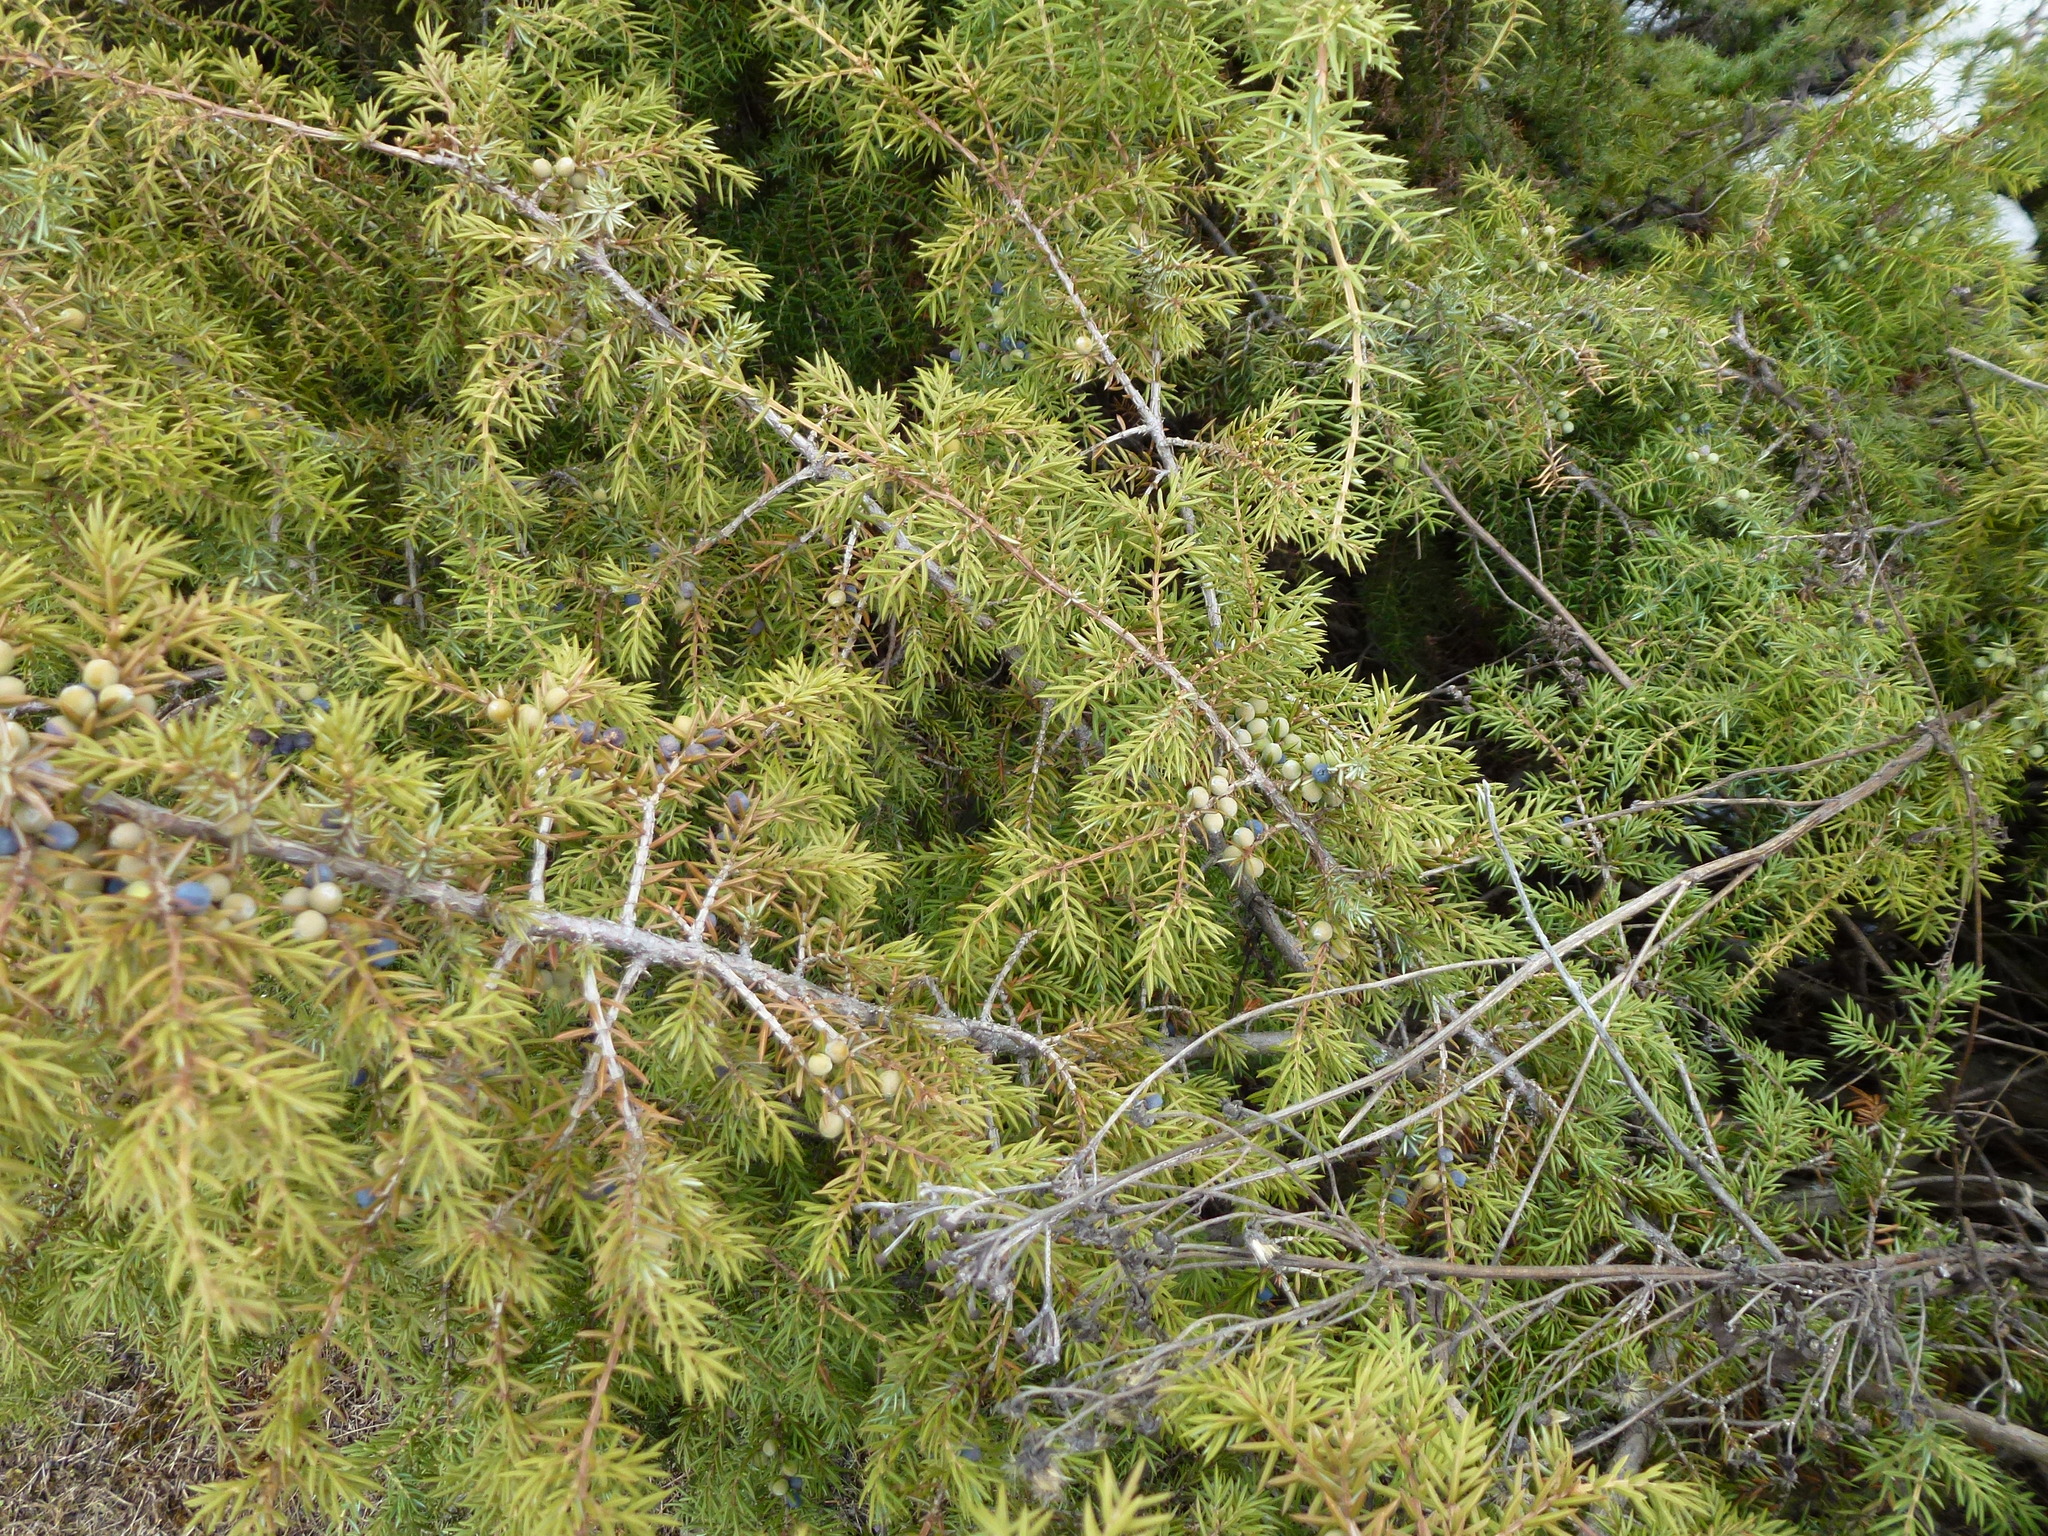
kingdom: Plantae
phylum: Tracheophyta
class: Pinopsida
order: Pinales
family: Cupressaceae
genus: Juniperus
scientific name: Juniperus communis
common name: Common juniper
